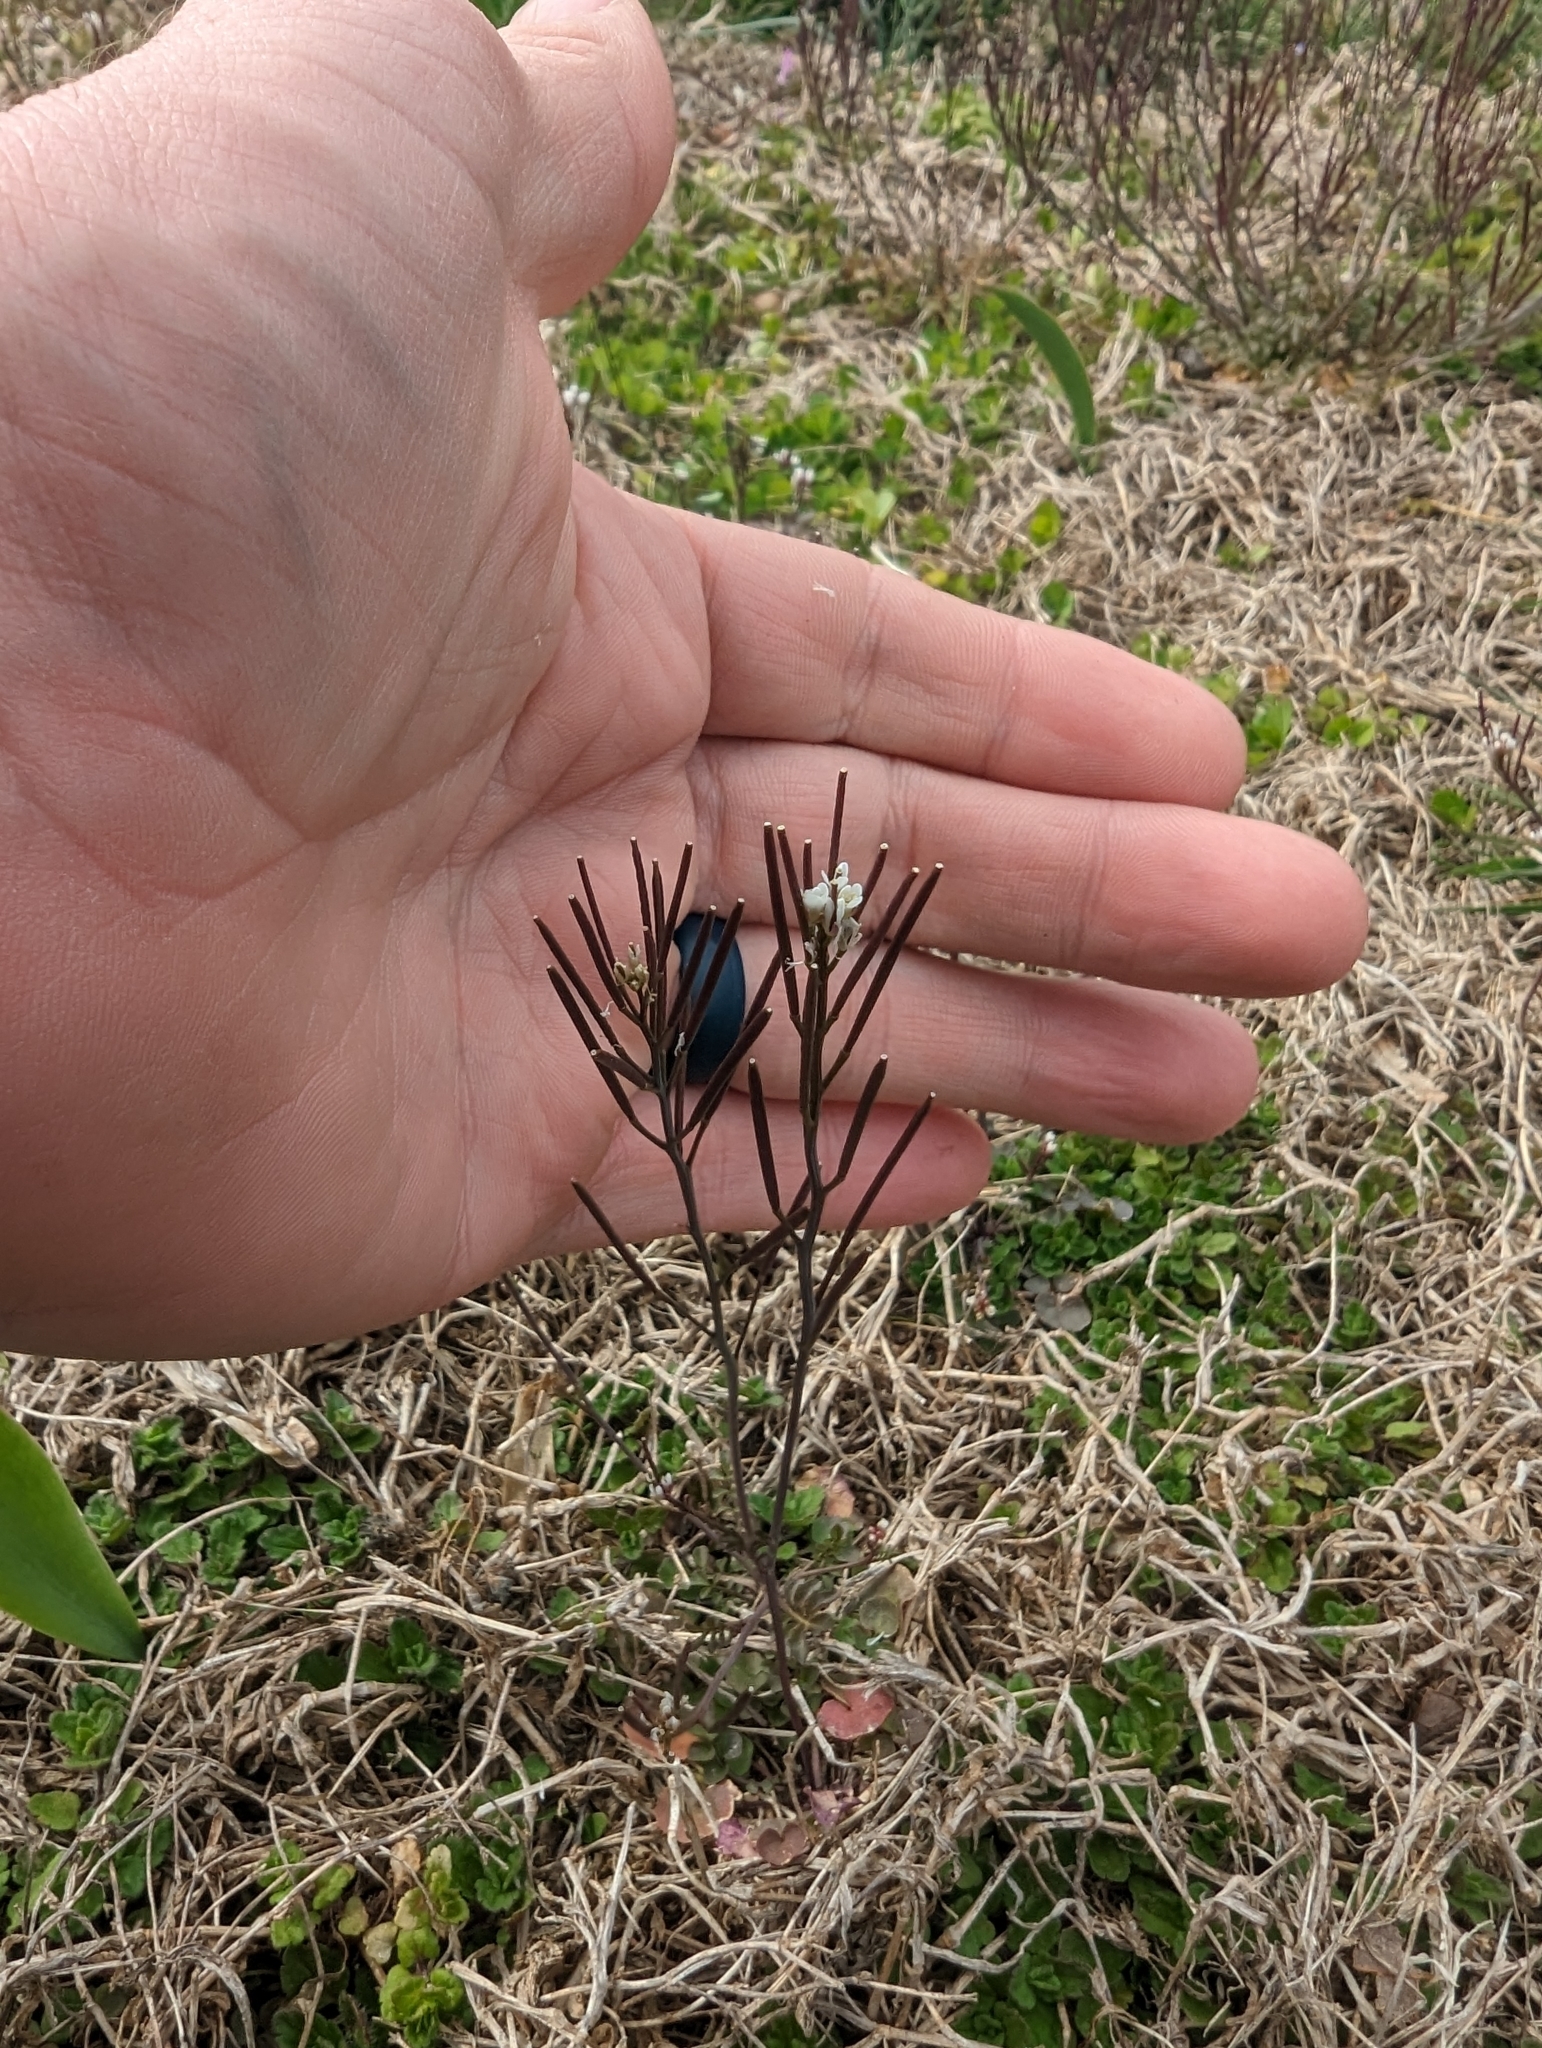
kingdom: Plantae
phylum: Tracheophyta
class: Magnoliopsida
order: Brassicales
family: Brassicaceae
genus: Cardamine
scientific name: Cardamine hirsuta
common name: Hairy bittercress
